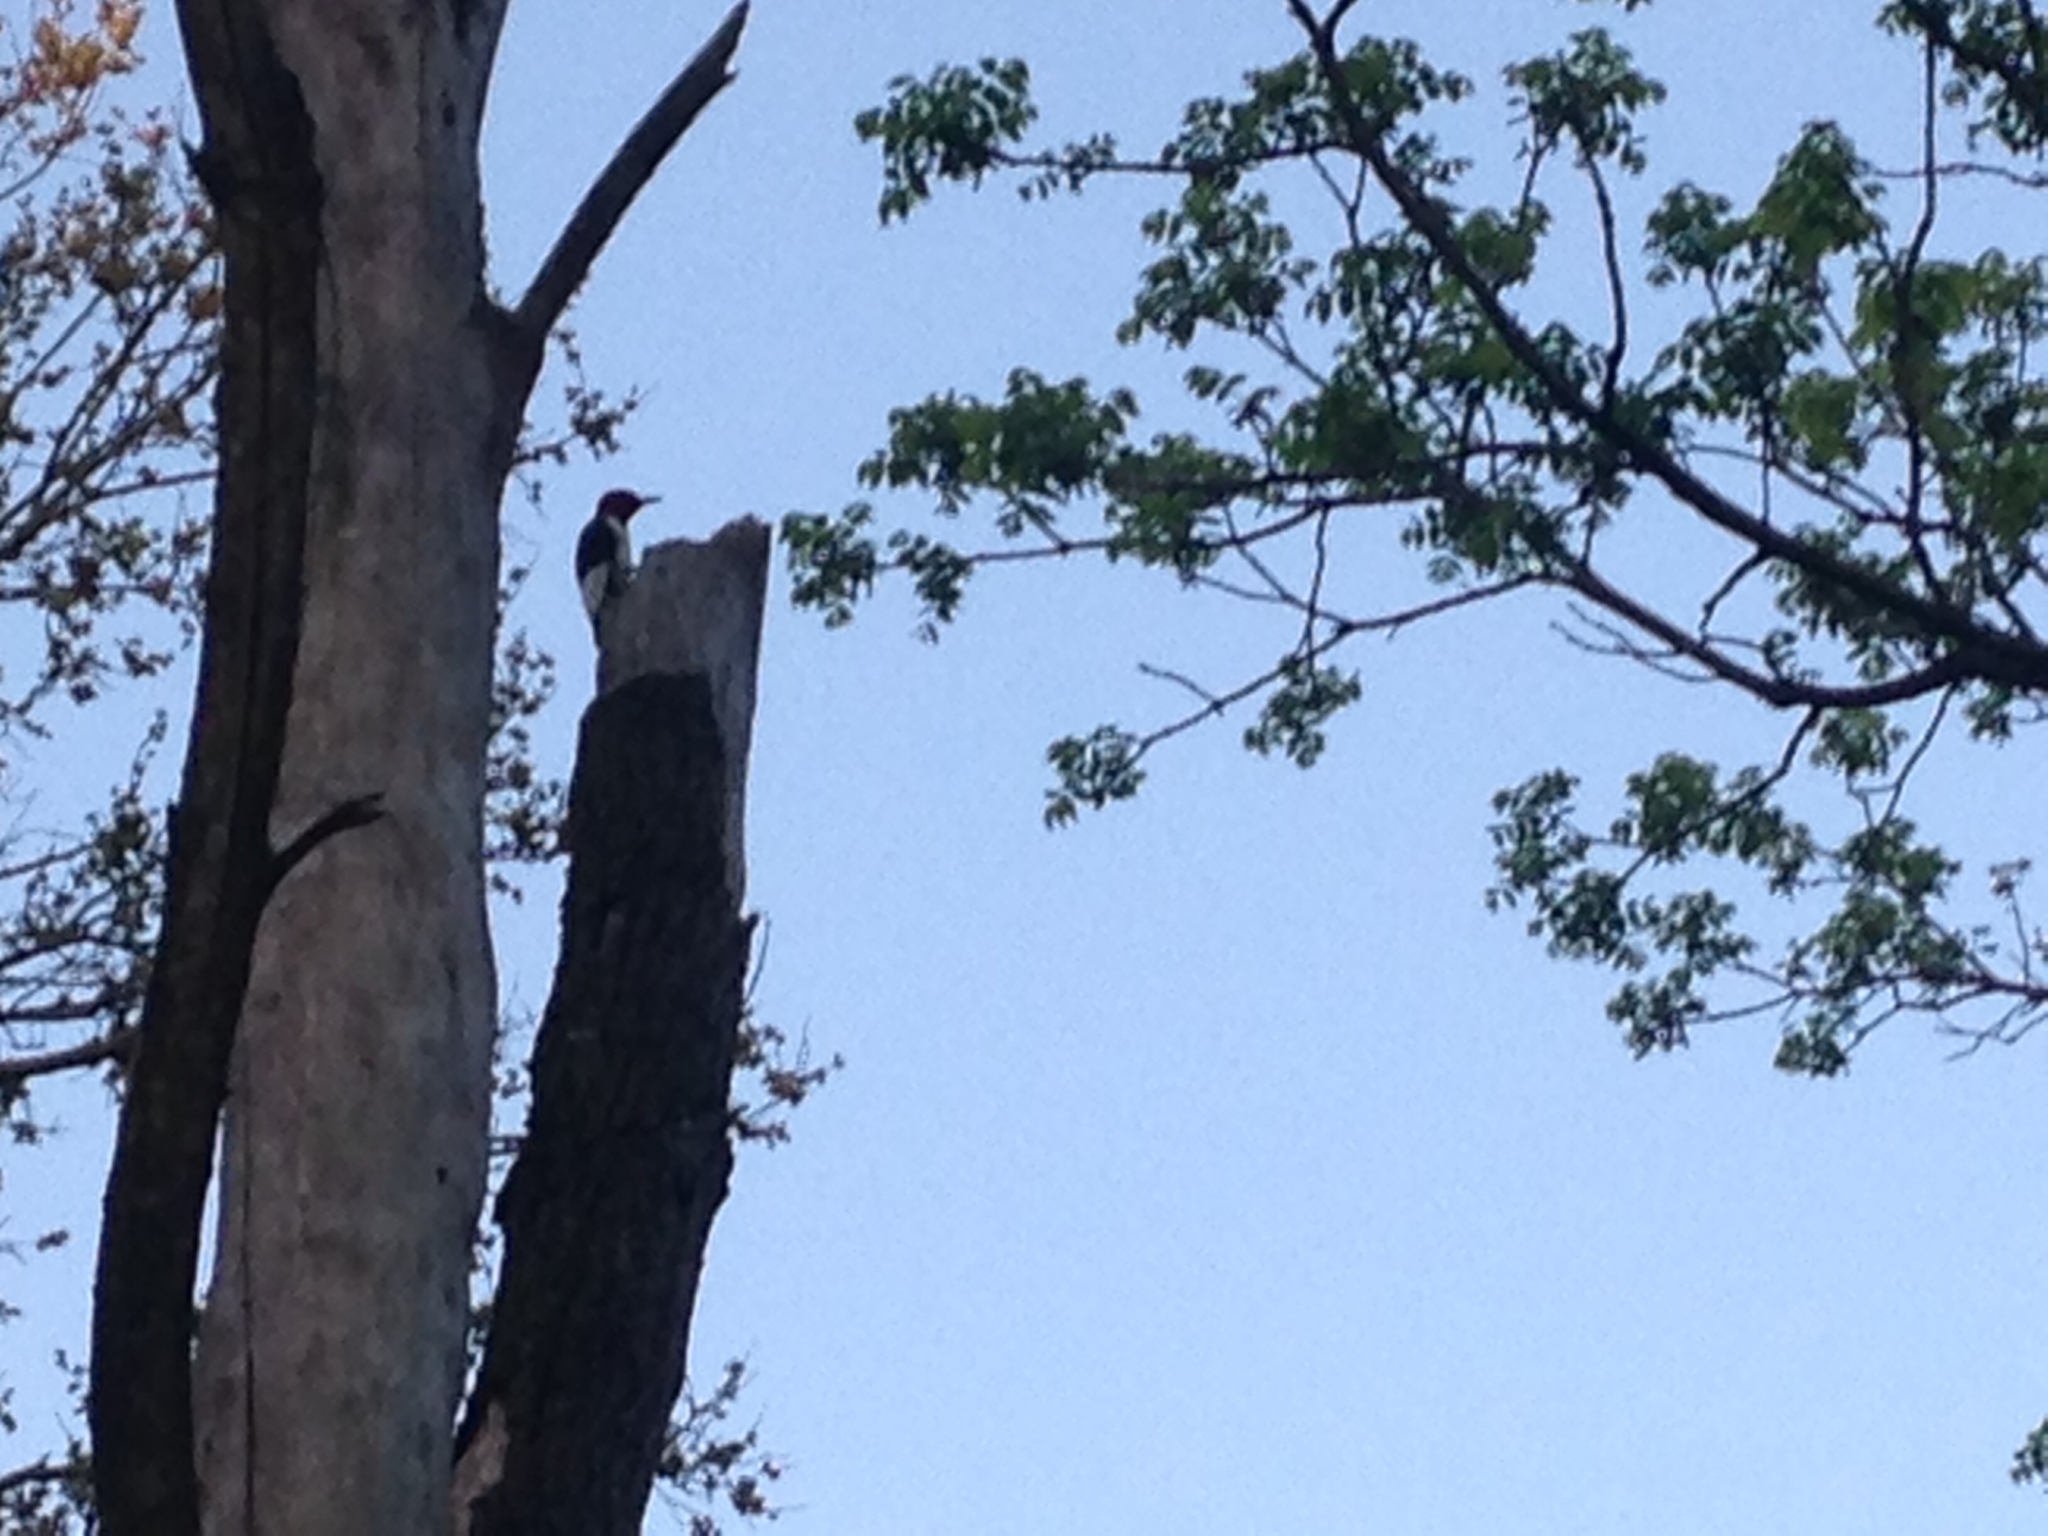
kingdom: Animalia
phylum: Chordata
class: Aves
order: Piciformes
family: Picidae
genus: Melanerpes
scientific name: Melanerpes erythrocephalus
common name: Red-headed woodpecker
